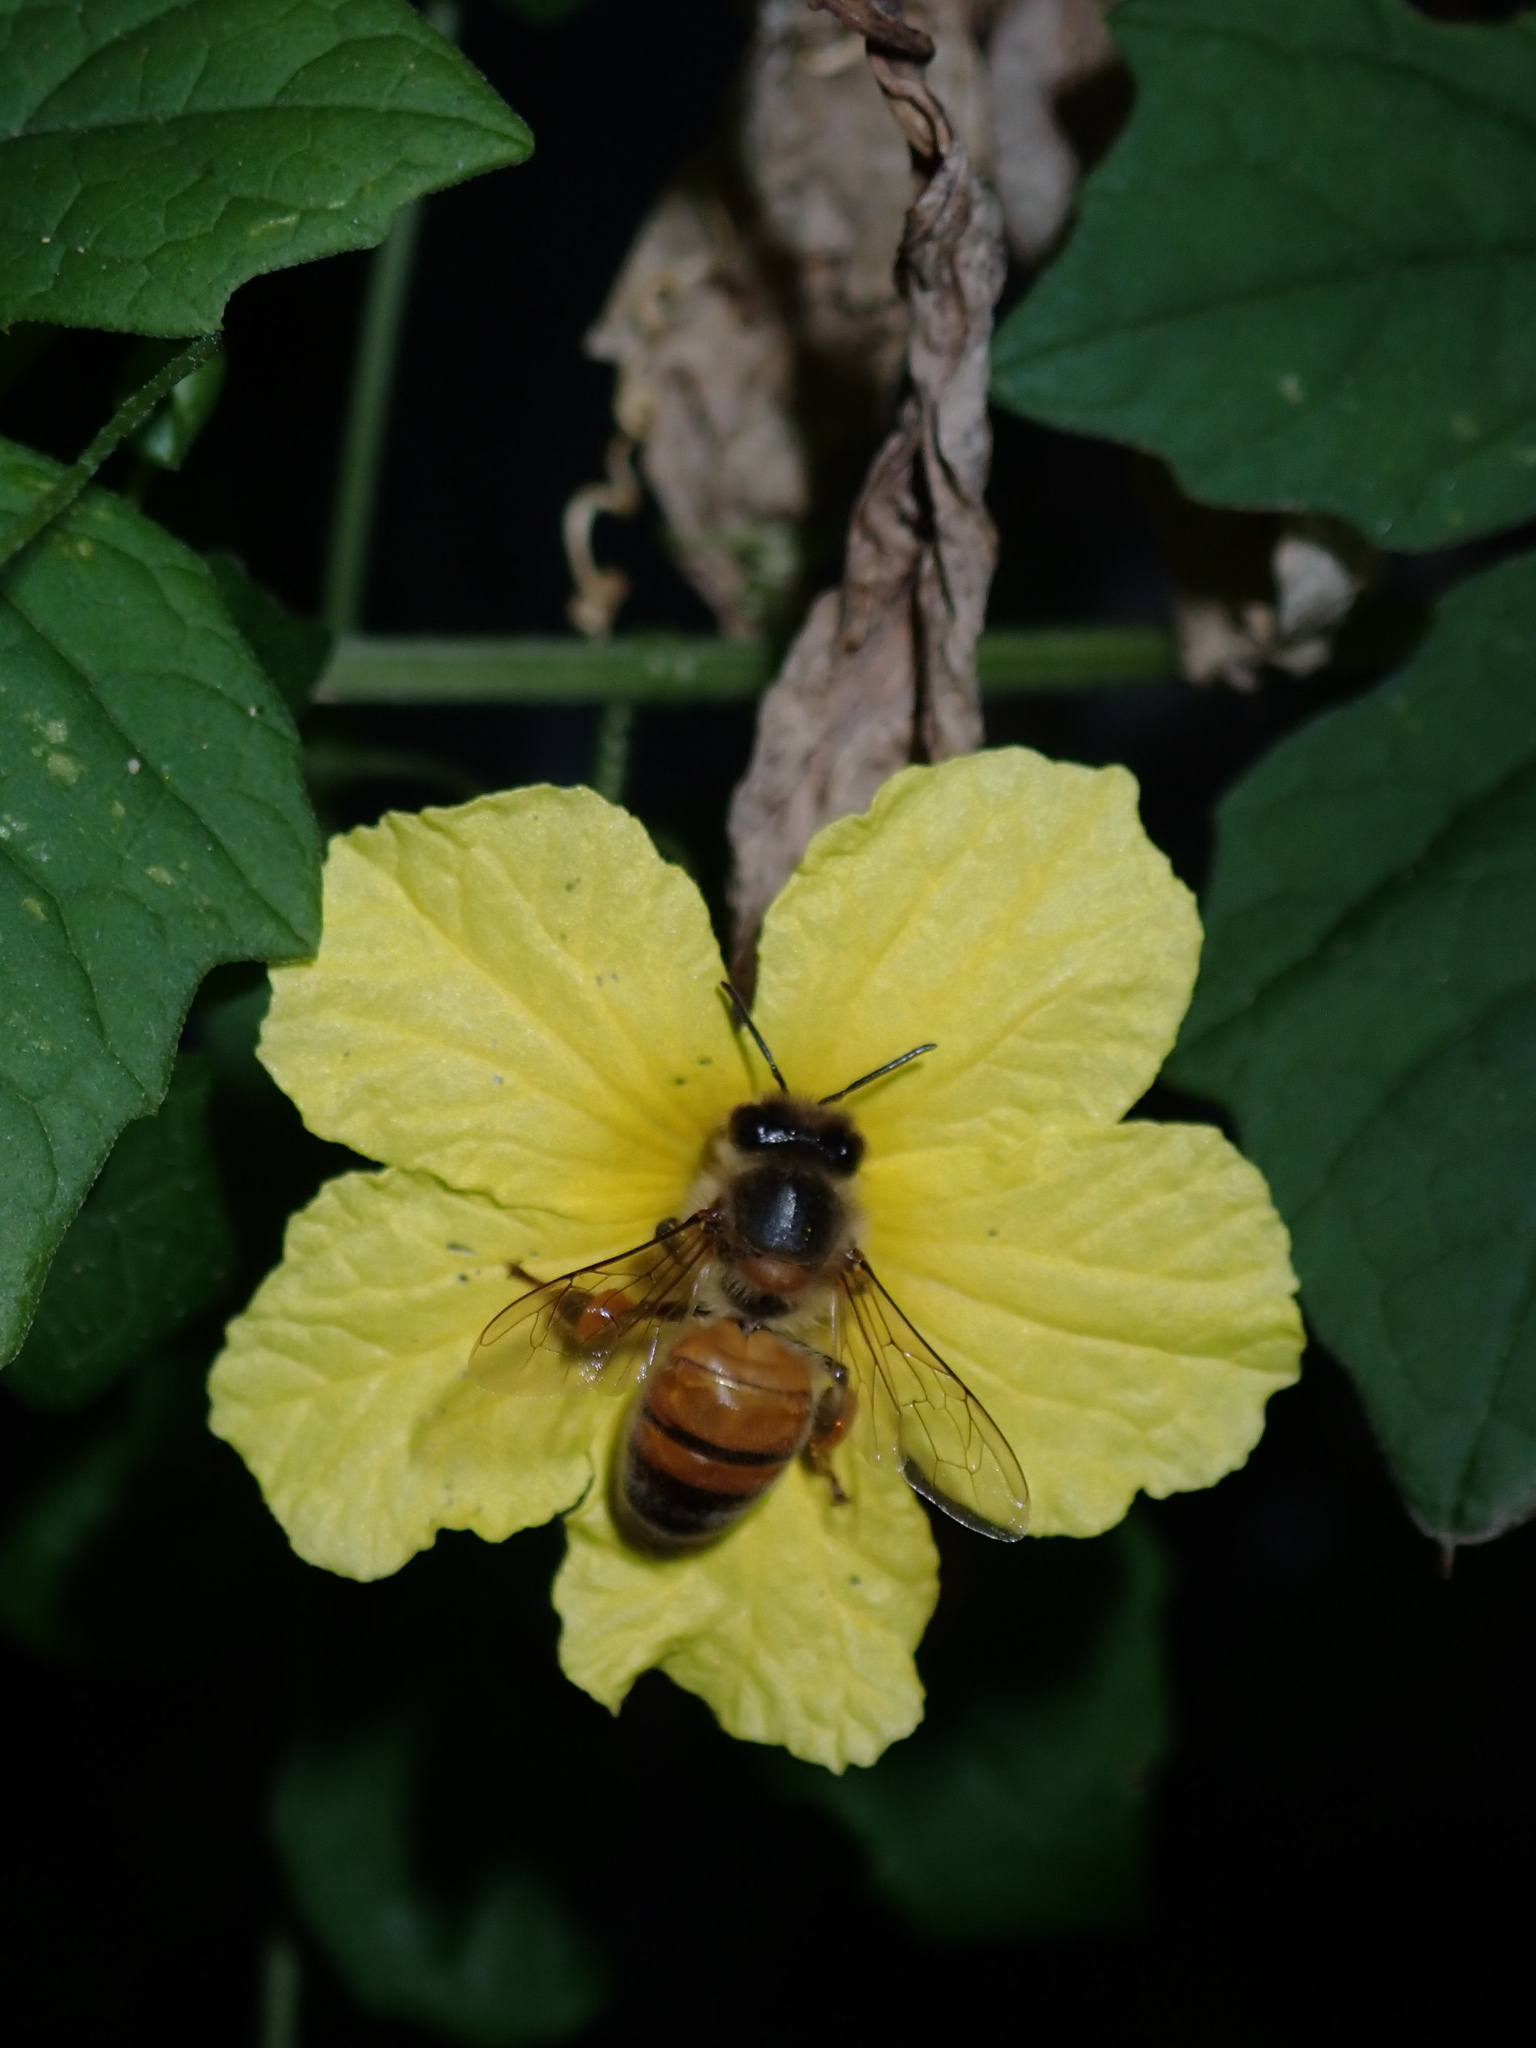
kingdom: Animalia
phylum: Arthropoda
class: Insecta
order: Hymenoptera
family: Apidae
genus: Apis
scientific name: Apis mellifera
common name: Honey bee
